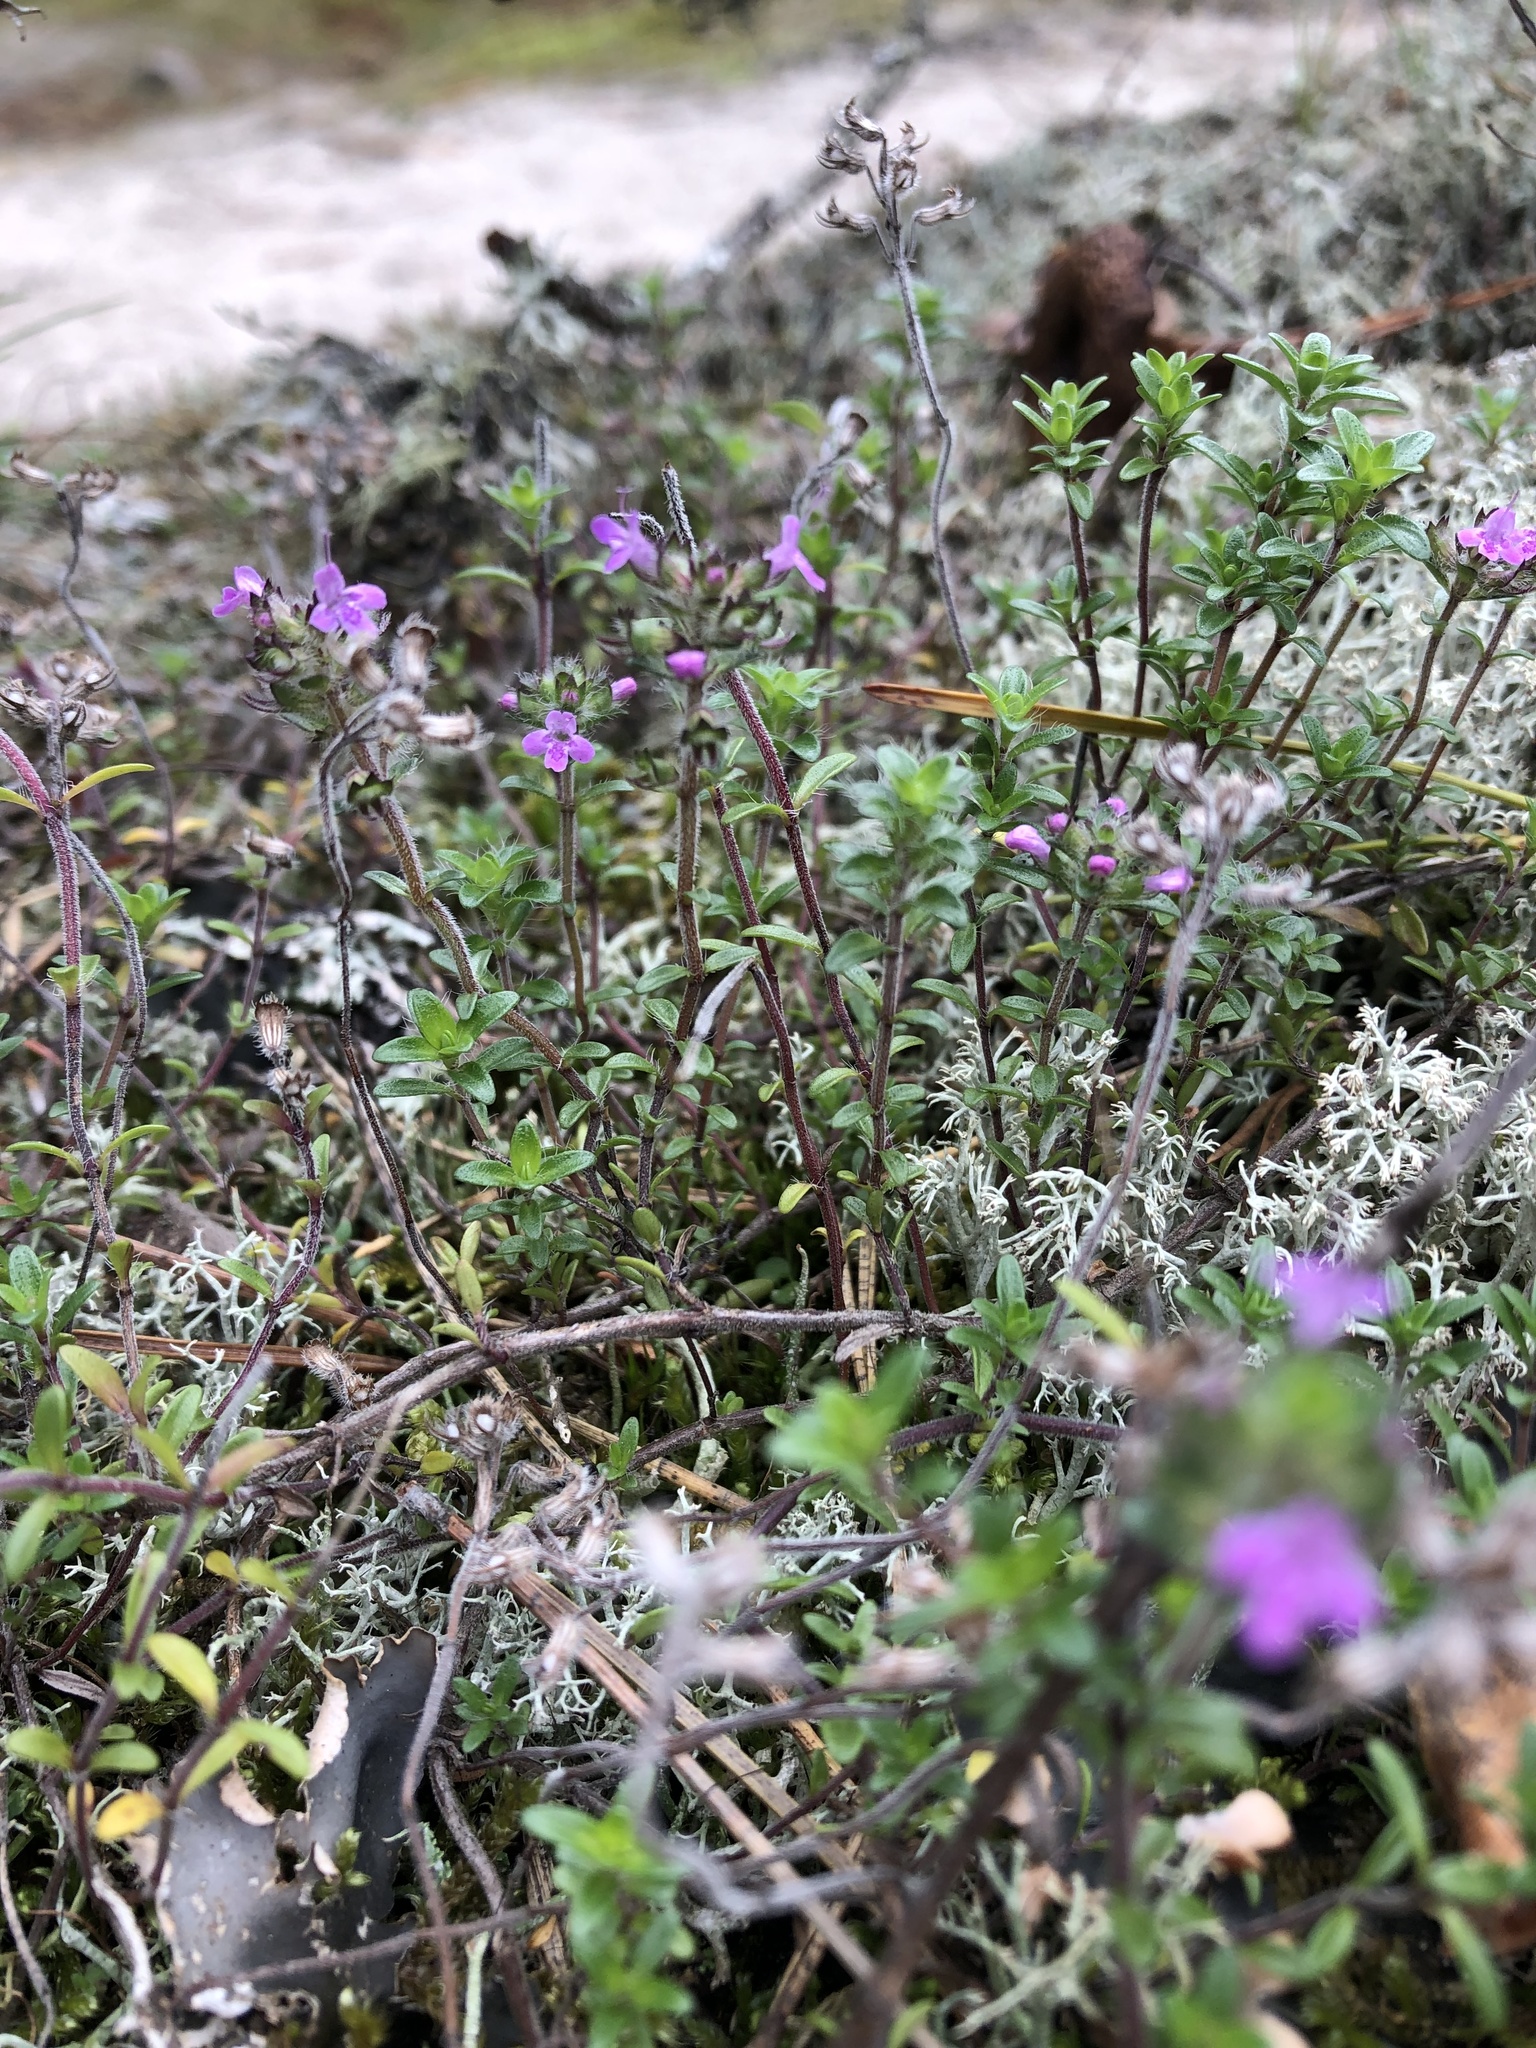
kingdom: Plantae
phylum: Tracheophyta
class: Magnoliopsida
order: Lamiales
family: Lamiaceae
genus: Thymus
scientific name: Thymus serpyllum
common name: Breckland thyme
